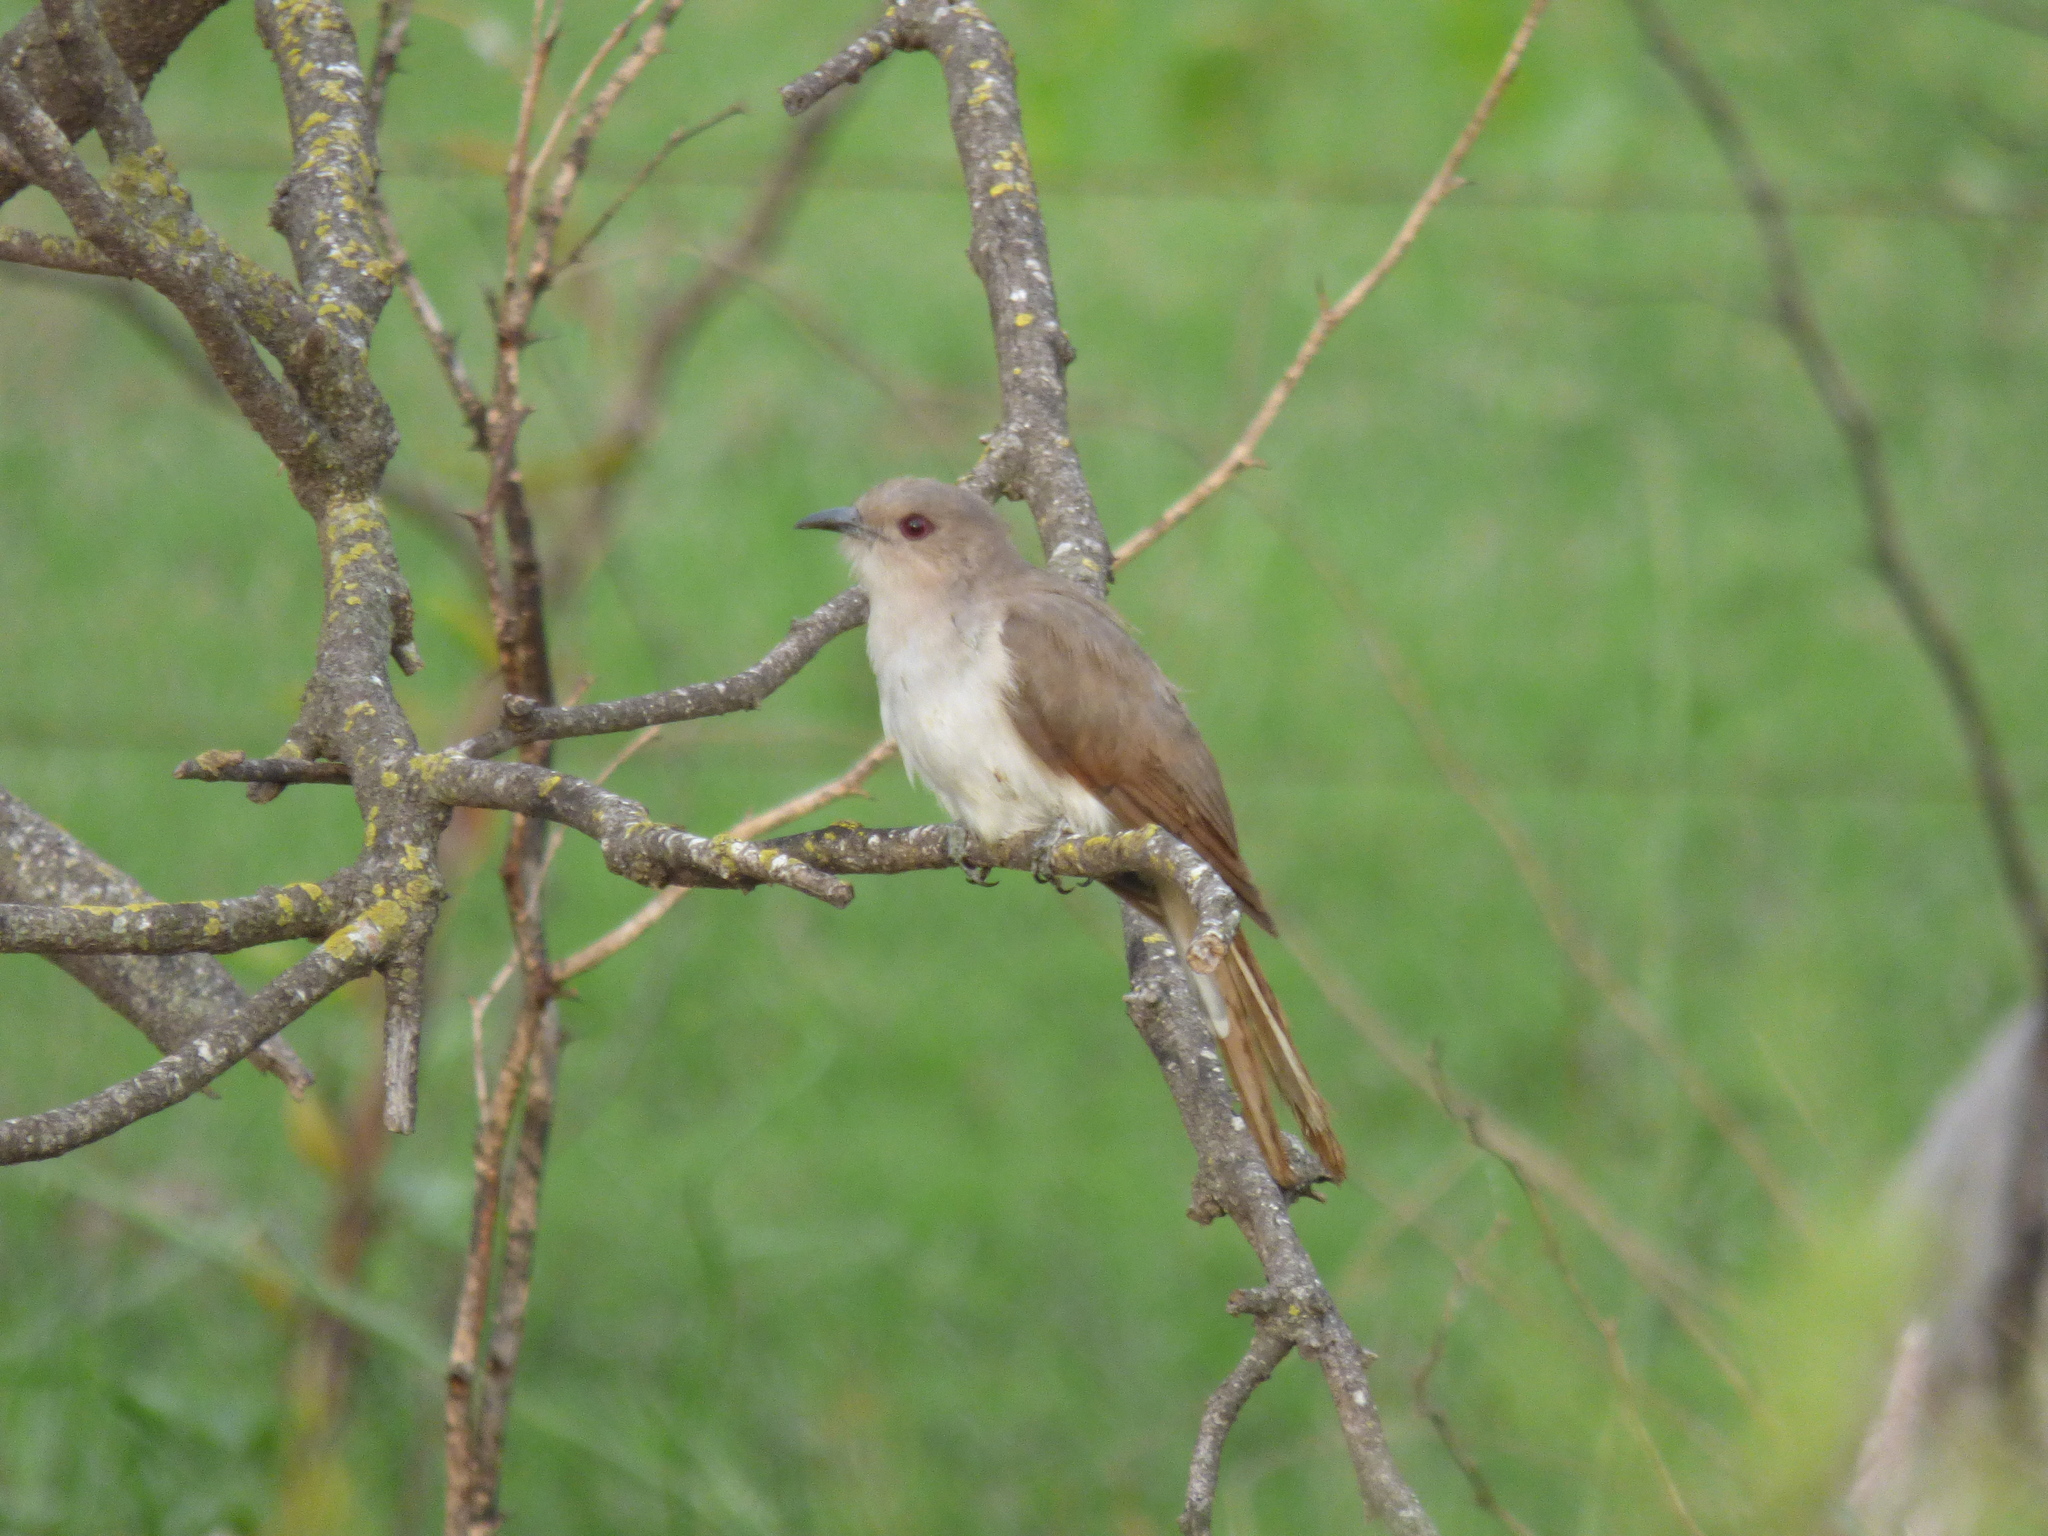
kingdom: Animalia
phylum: Chordata
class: Aves
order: Cuculiformes
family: Cuculidae
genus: Coccyzus
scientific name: Coccyzus cinereus
